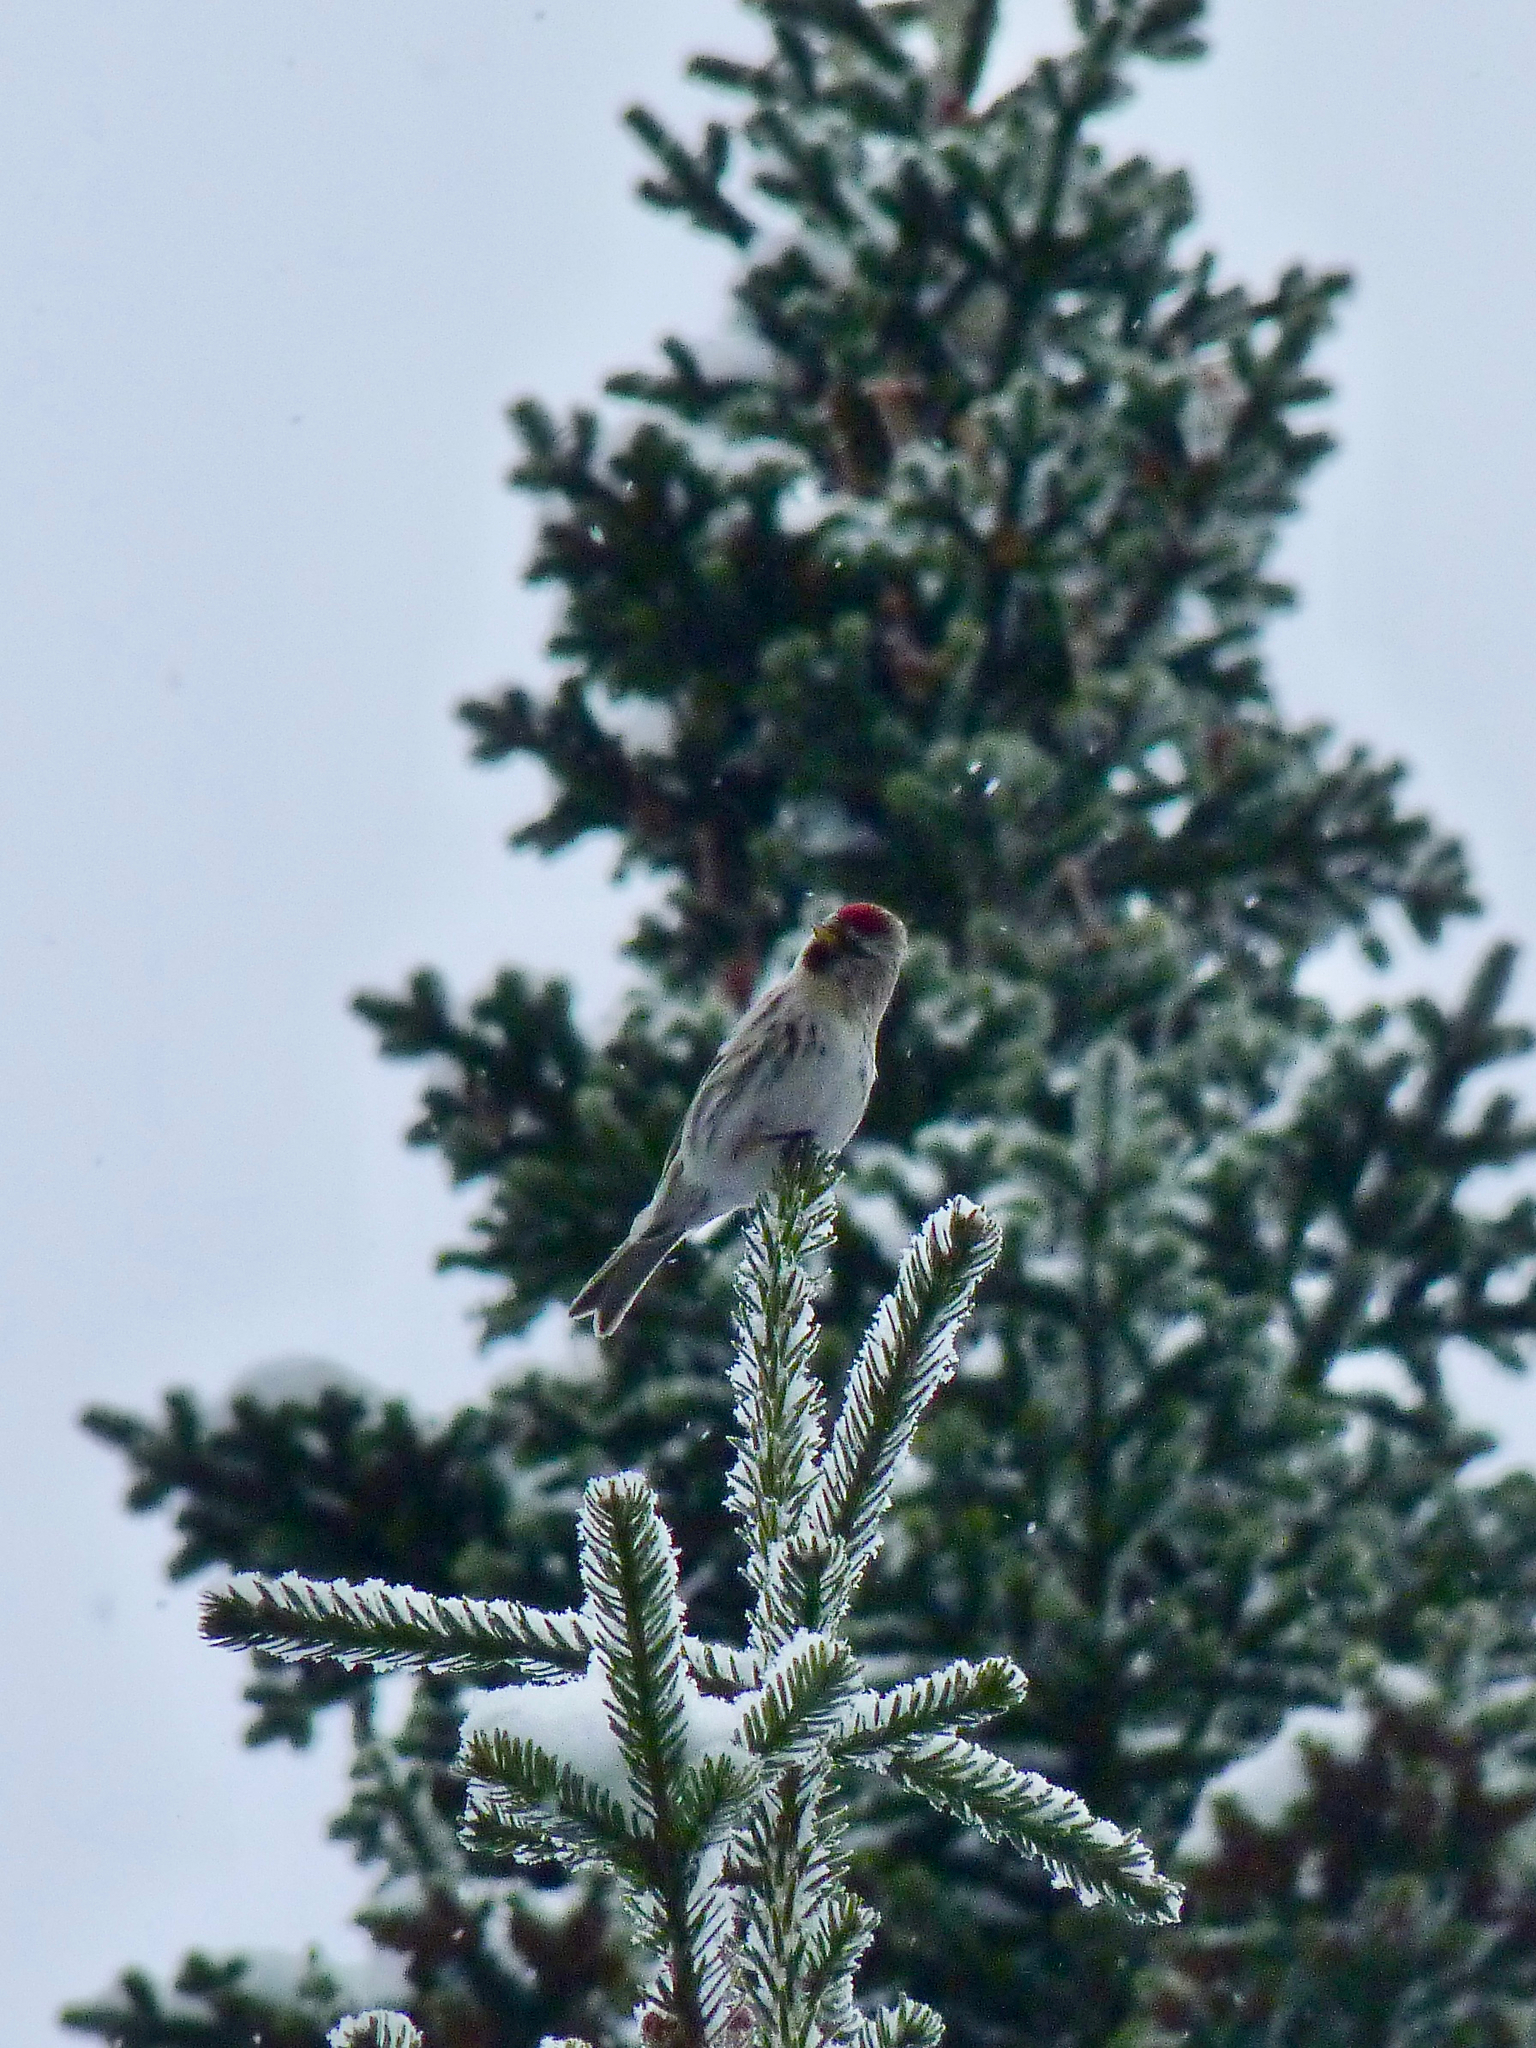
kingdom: Animalia
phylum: Chordata
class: Aves
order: Passeriformes
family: Fringillidae
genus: Acanthis
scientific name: Acanthis flammea
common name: Common redpoll
